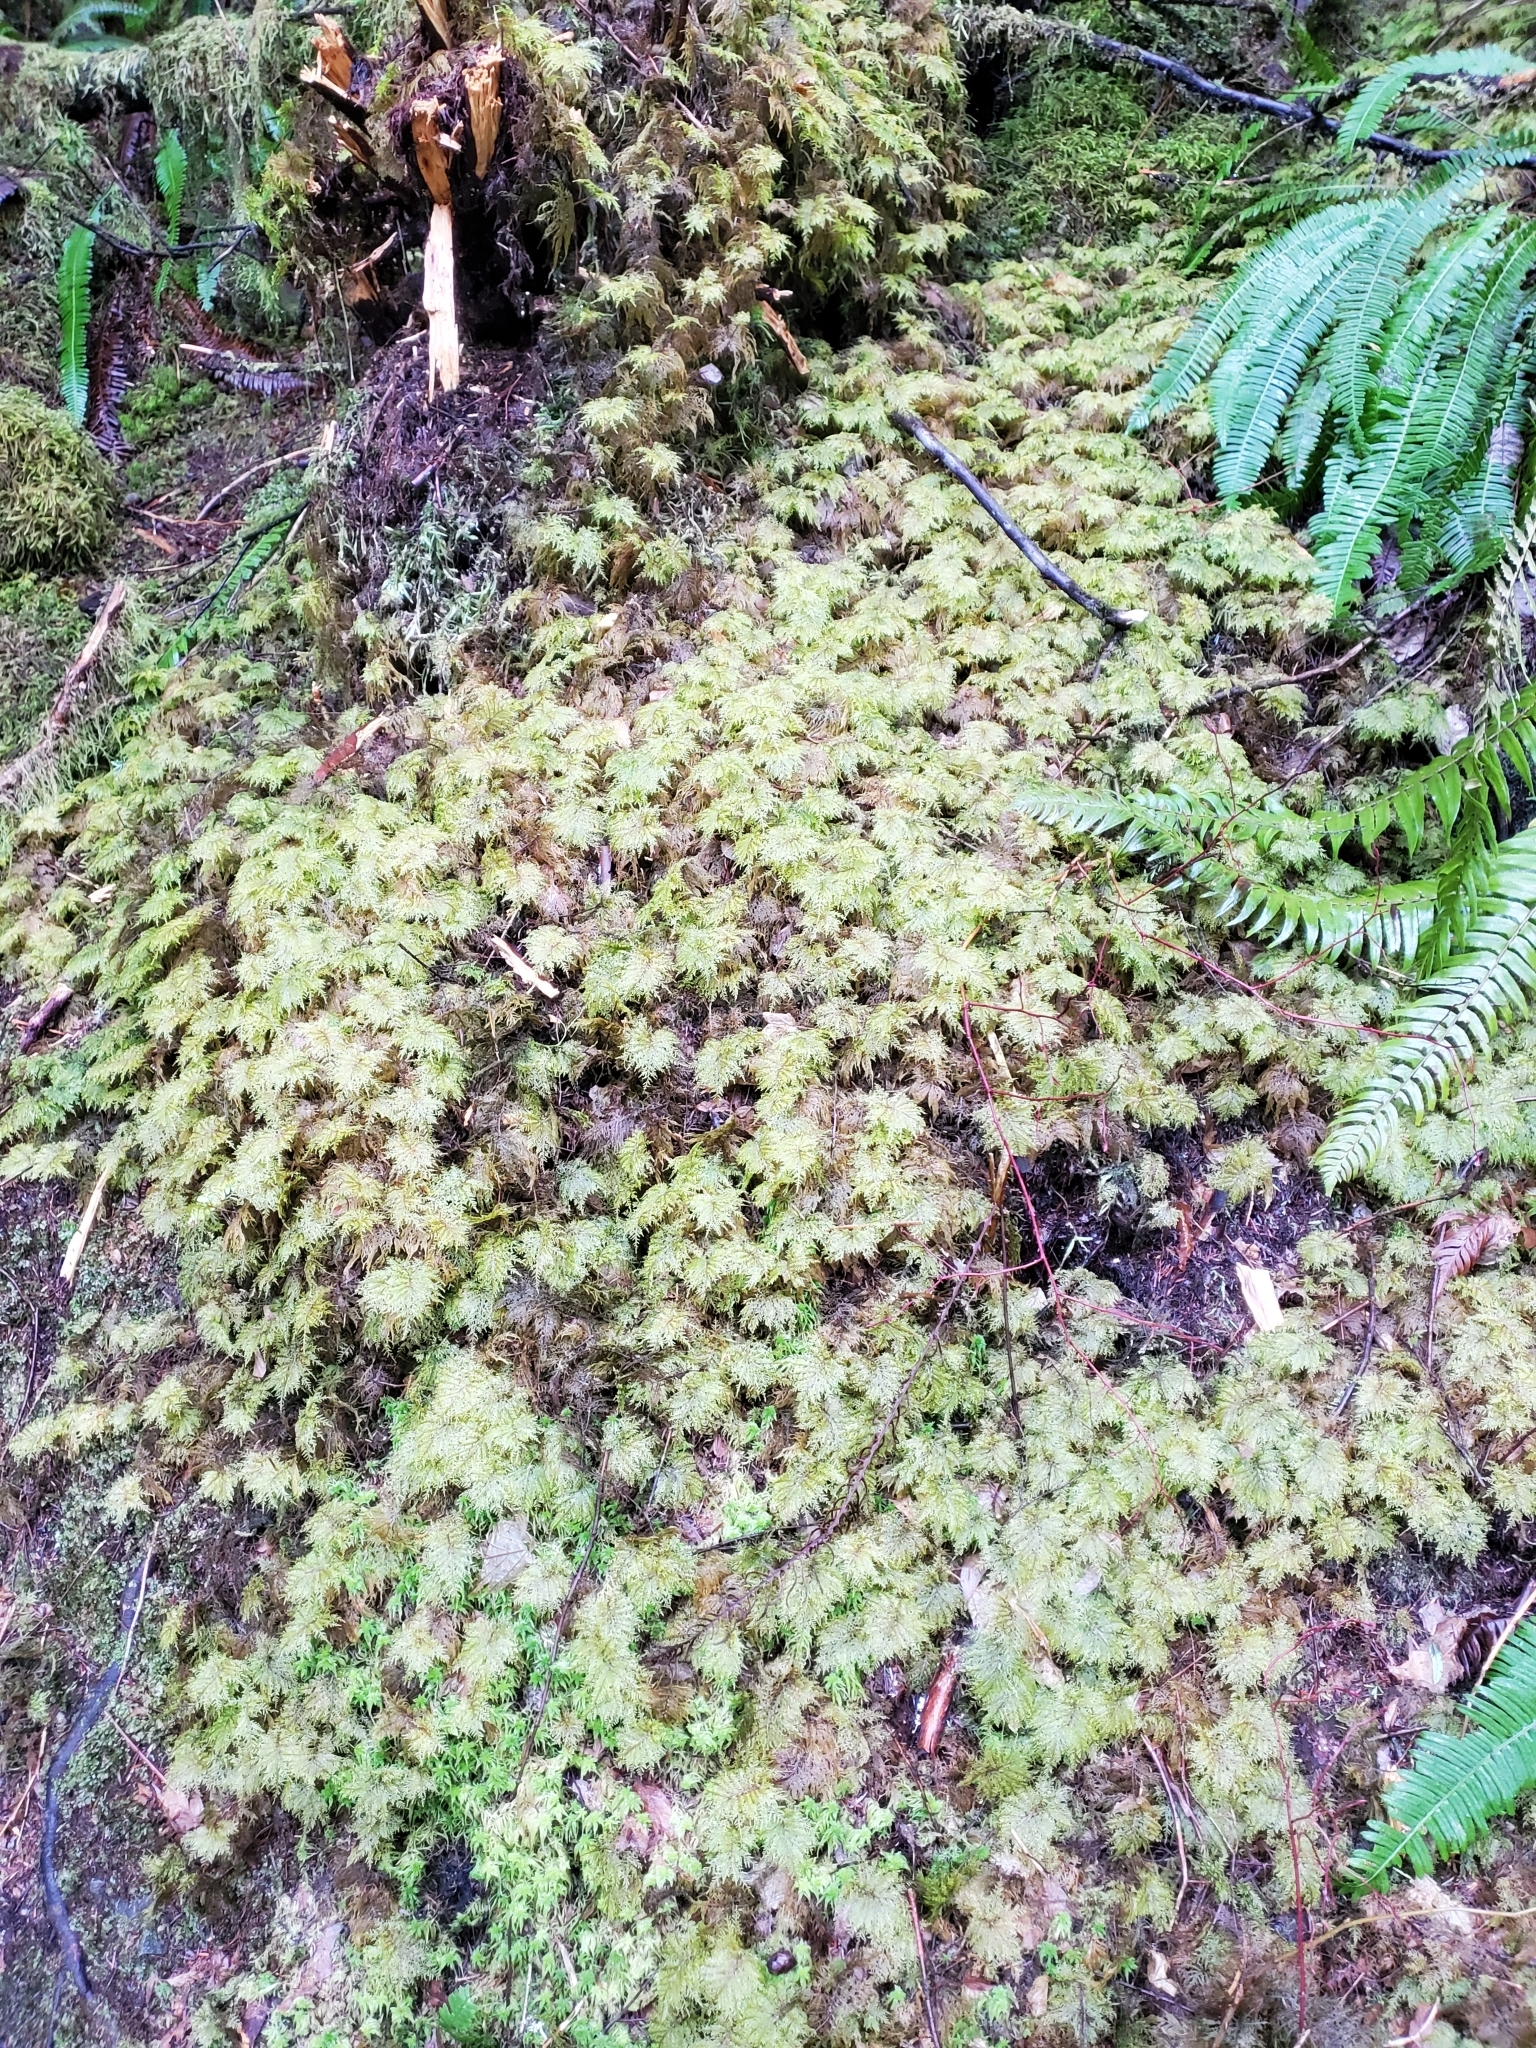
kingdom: Plantae
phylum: Bryophyta
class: Bryopsida
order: Hypnales
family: Hylocomiaceae
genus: Hylocomium
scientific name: Hylocomium splendens
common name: Stairstep moss
